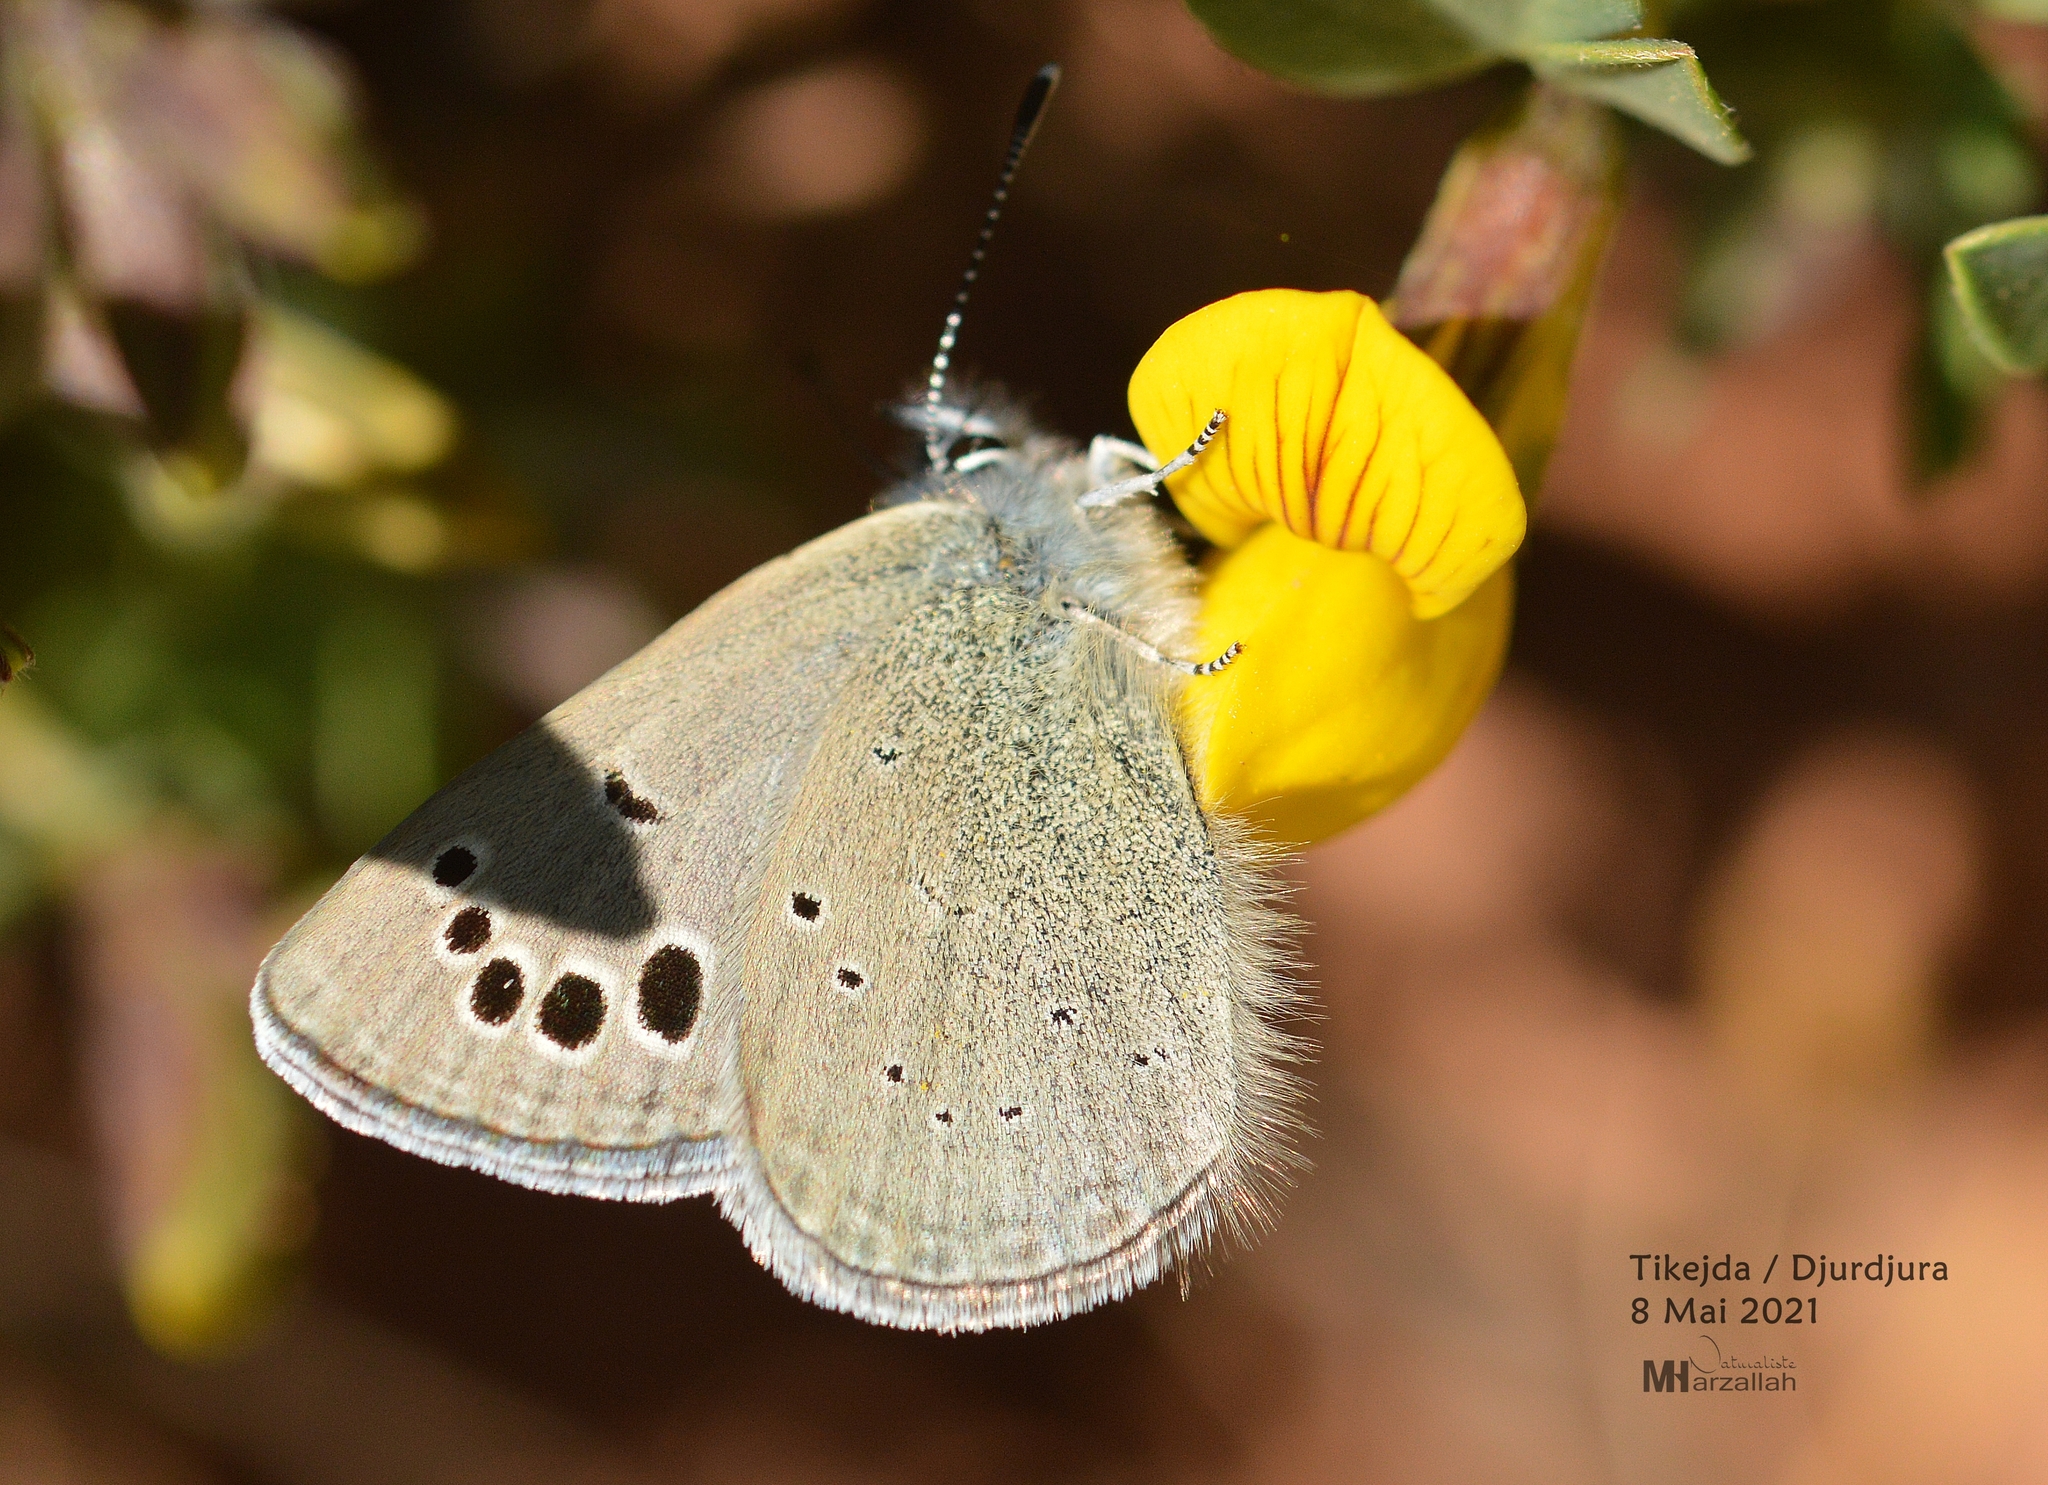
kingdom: Animalia
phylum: Arthropoda
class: Insecta
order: Lepidoptera
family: Lycaenidae
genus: Glaucopsyche
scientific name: Glaucopsyche melanops
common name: Black-eyed blue
